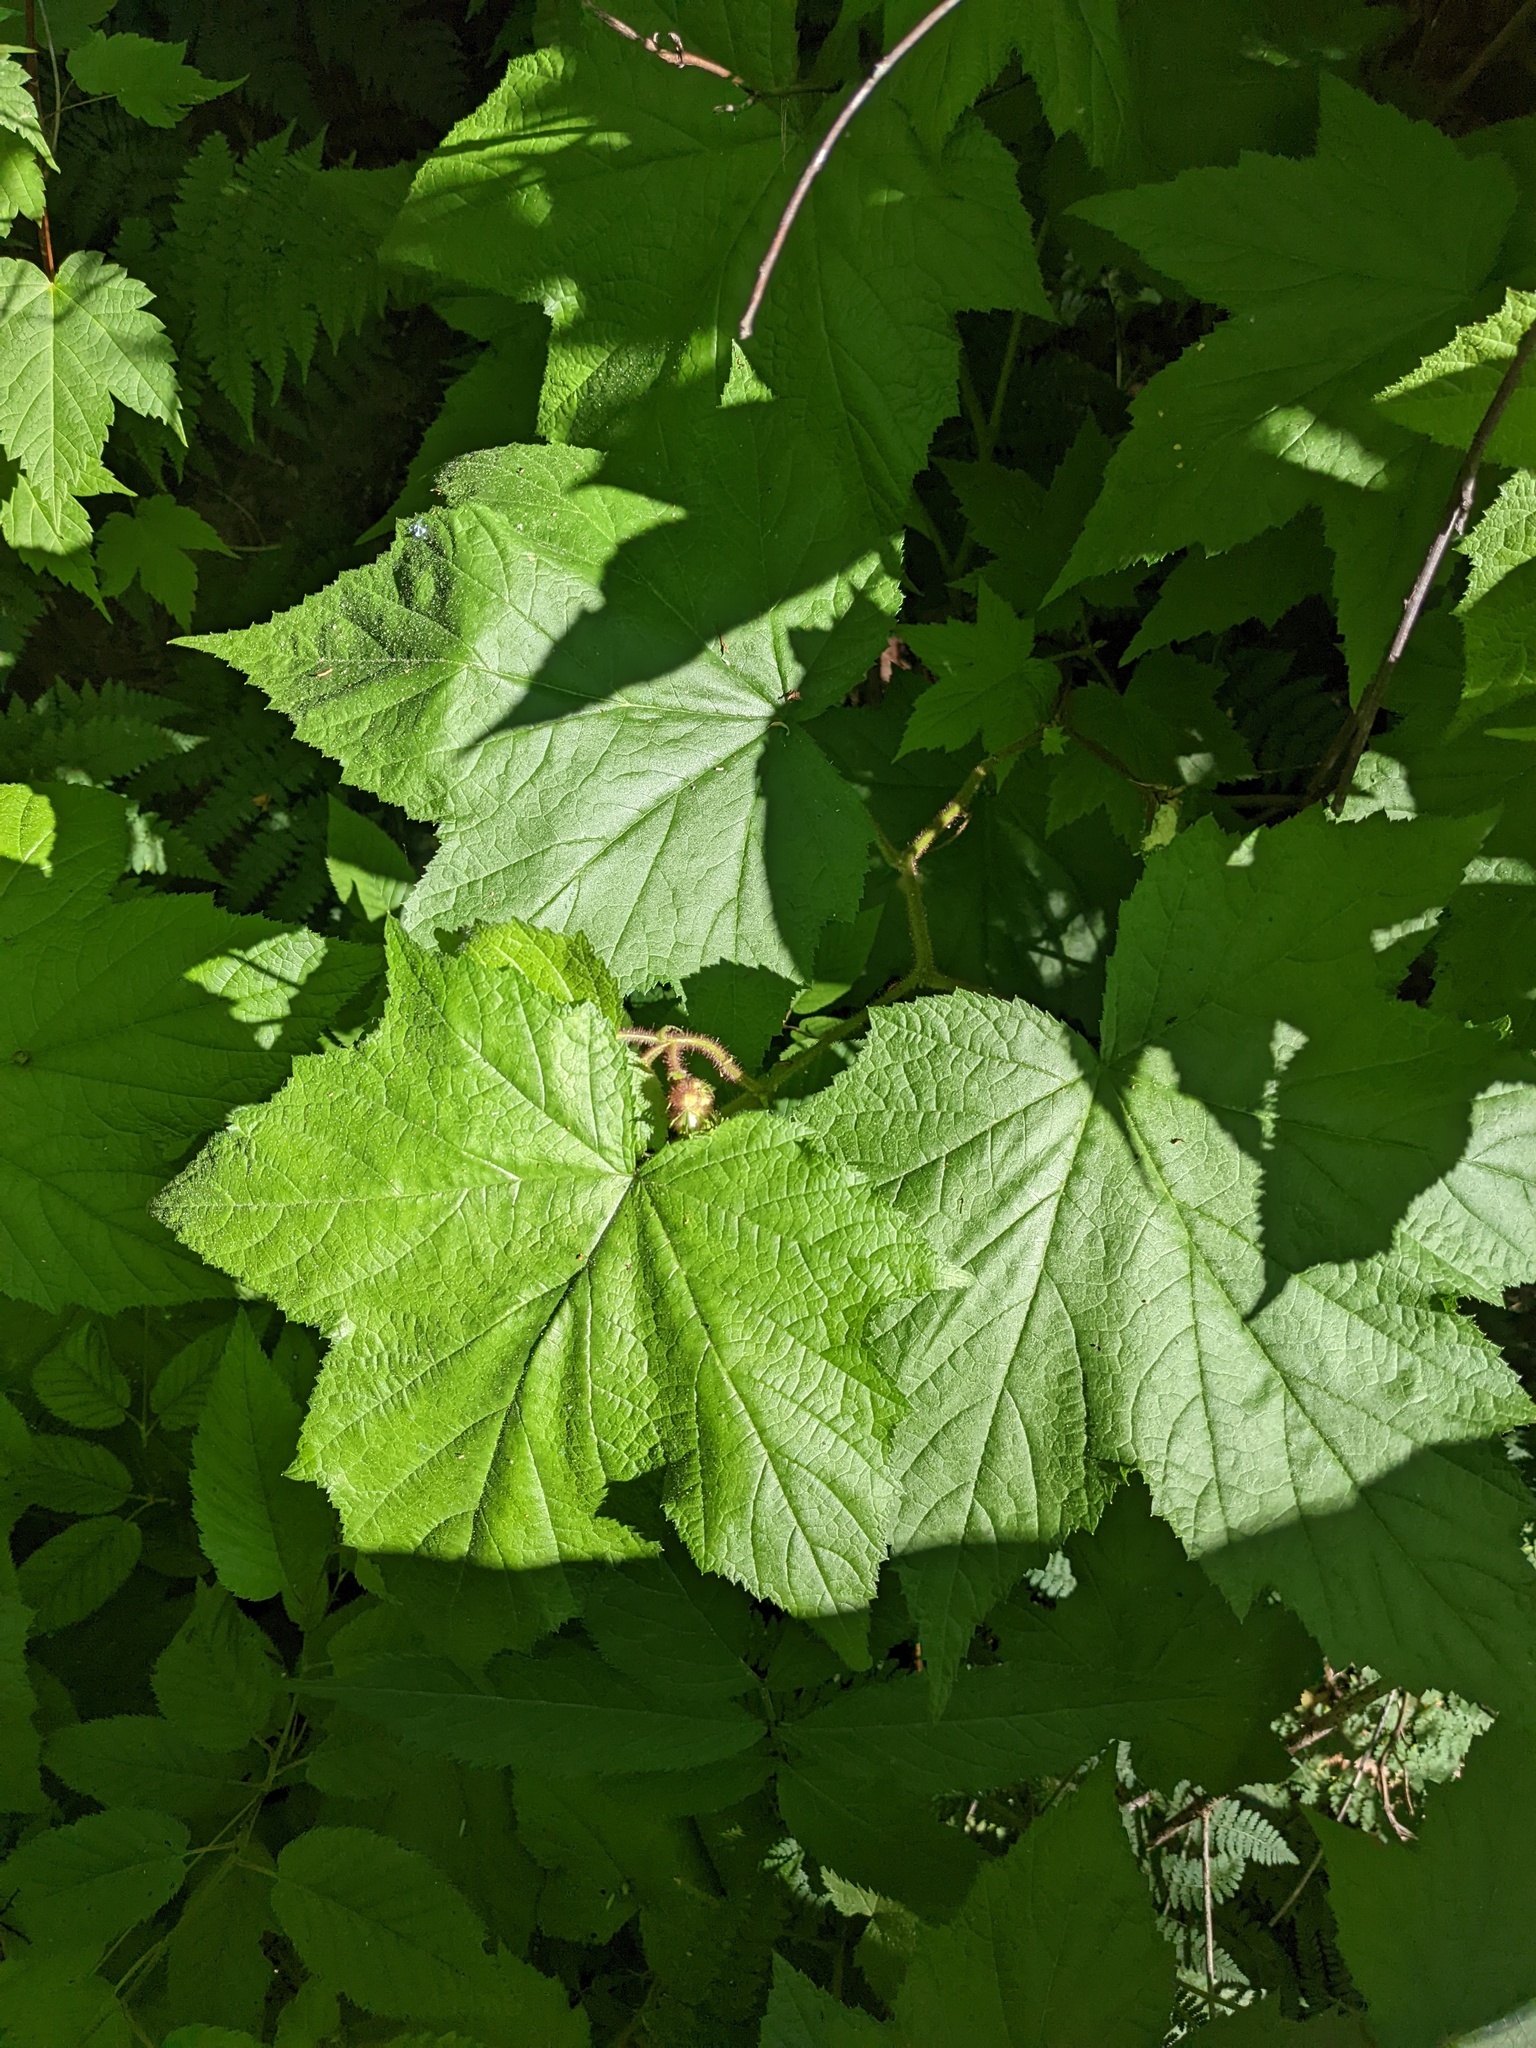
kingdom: Plantae
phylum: Tracheophyta
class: Magnoliopsida
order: Rosales
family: Rosaceae
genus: Rubus
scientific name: Rubus odoratus
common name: Purple-flowered raspberry
